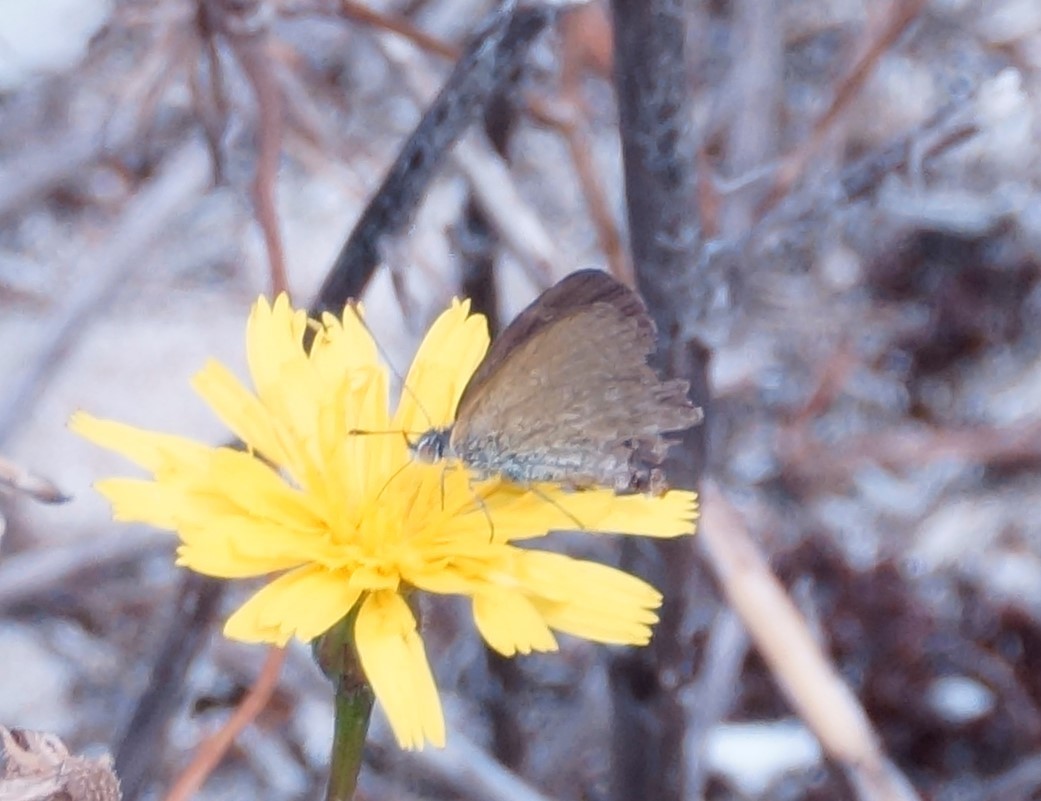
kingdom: Animalia
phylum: Arthropoda
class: Insecta
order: Lepidoptera
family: Lycaenidae
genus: Zizina
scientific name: Zizina labradus
